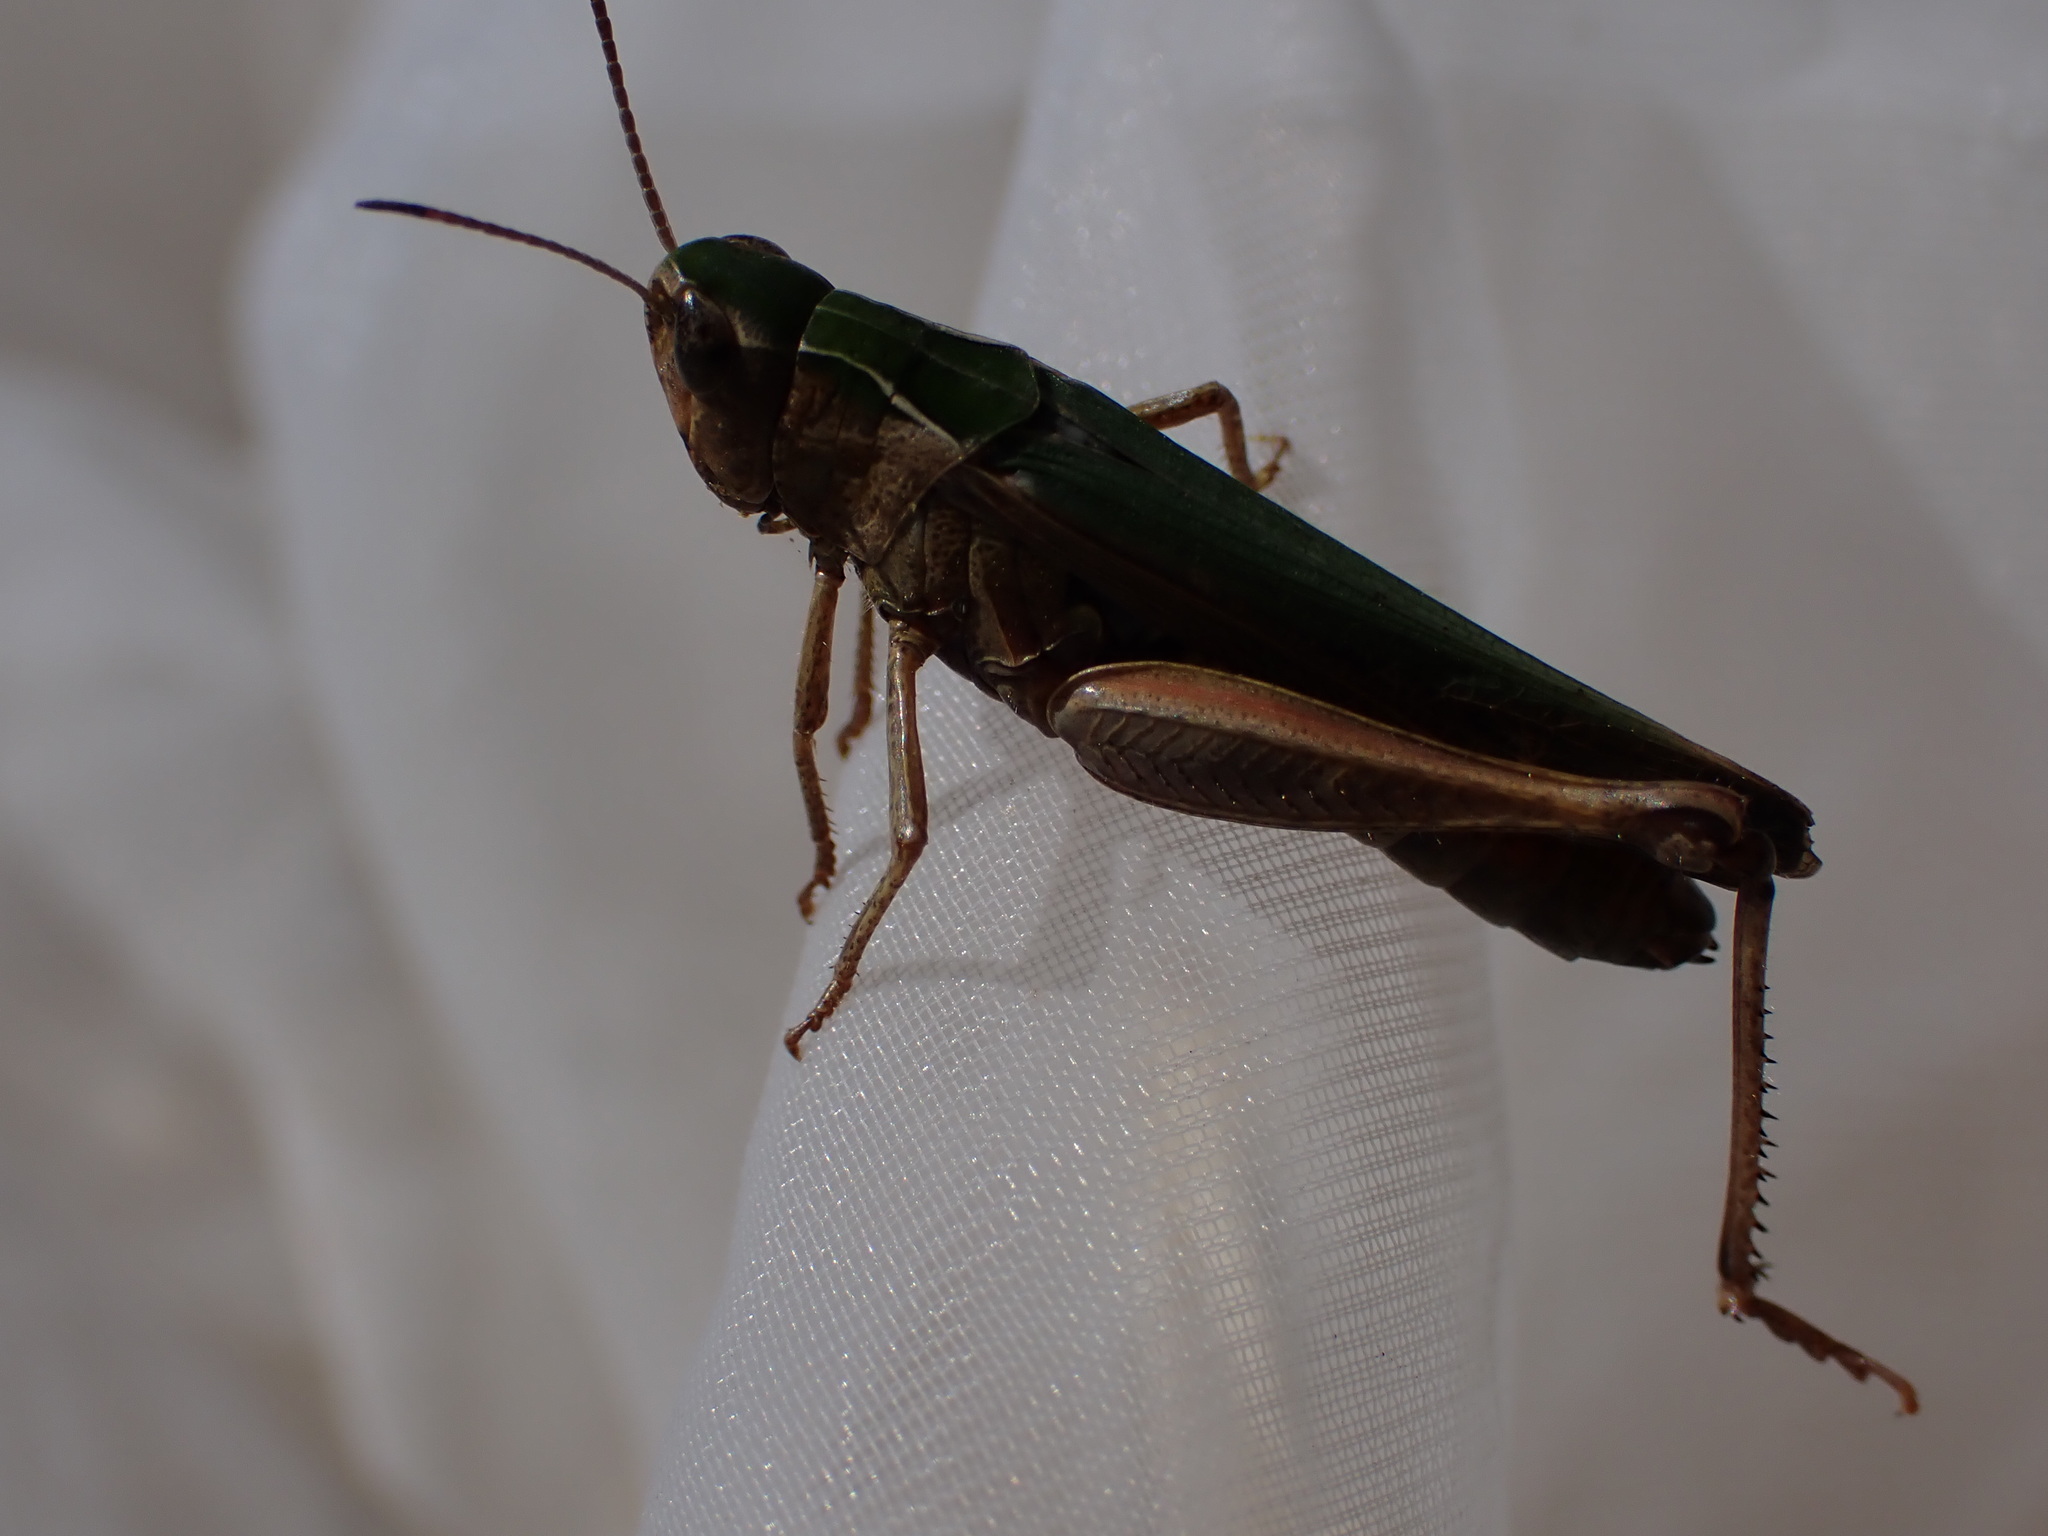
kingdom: Animalia
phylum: Arthropoda
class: Insecta
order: Orthoptera
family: Acrididae
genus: Omocestus
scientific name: Omocestus rufipes
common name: Woodland grasshopper
